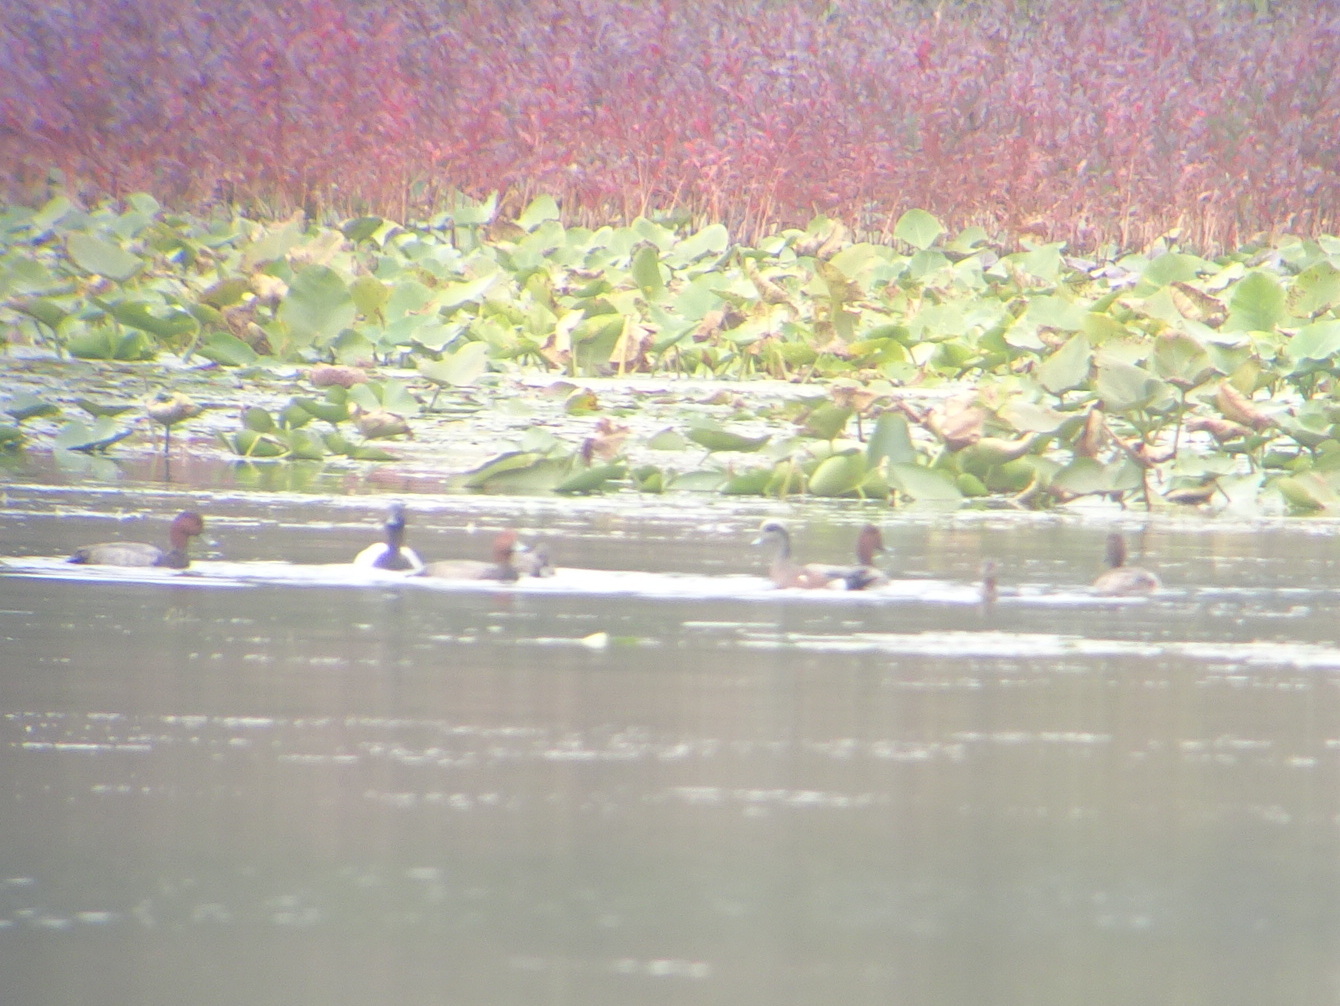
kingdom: Animalia
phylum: Chordata
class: Aves
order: Anseriformes
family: Anatidae
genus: Aythya
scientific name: Aythya americana
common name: Redhead
